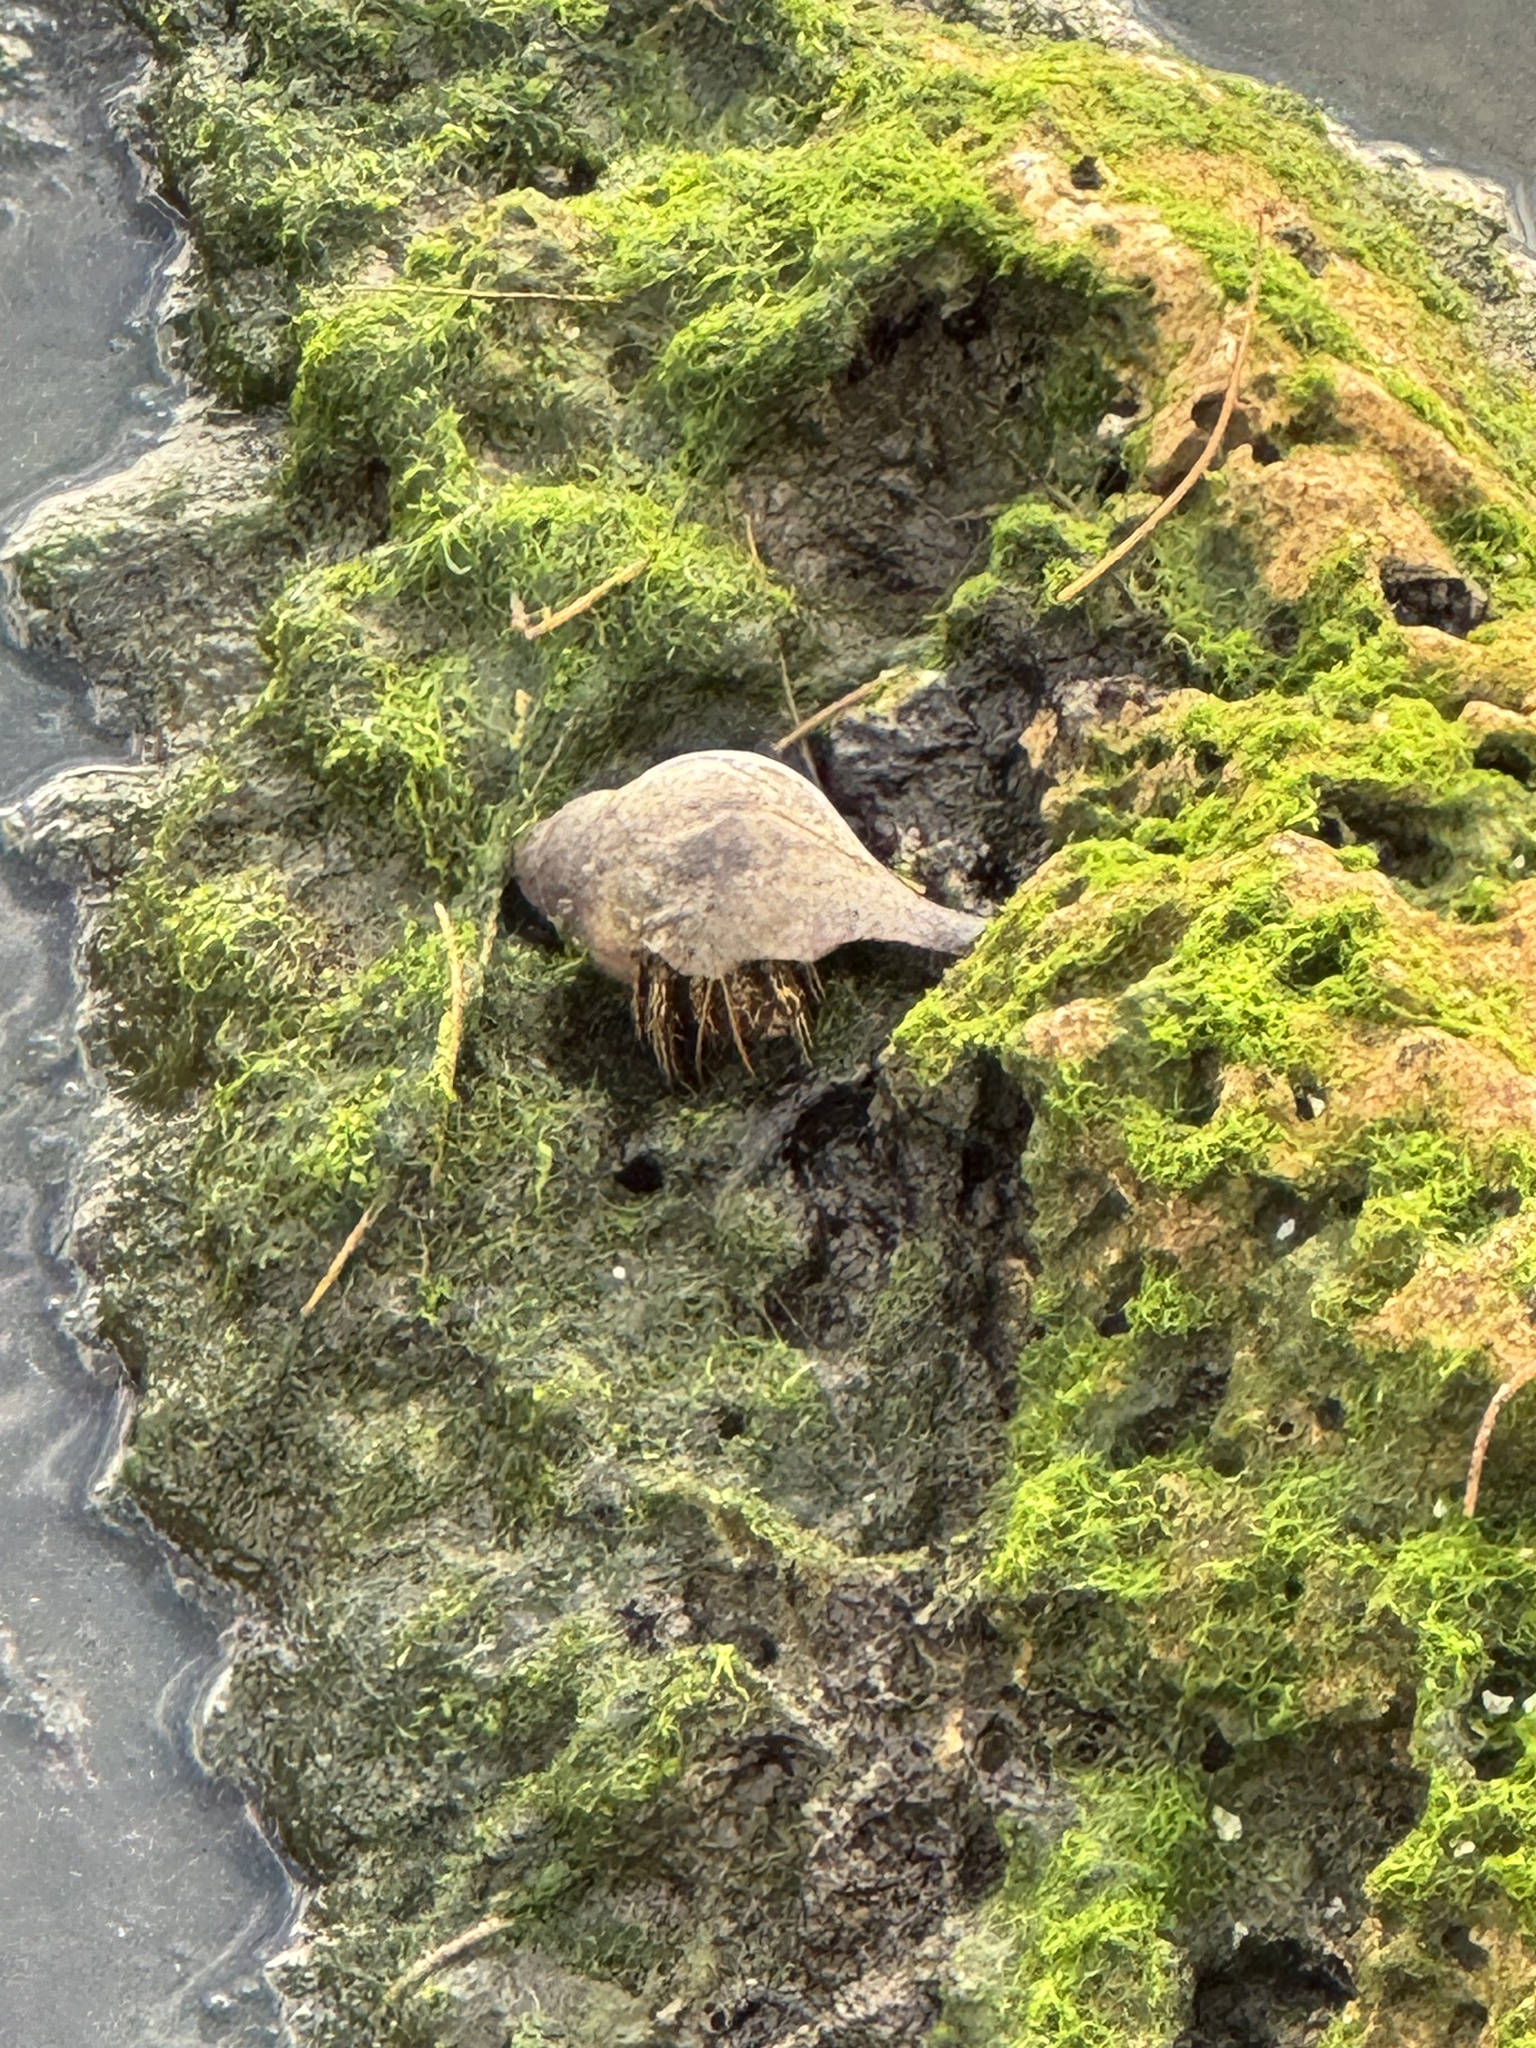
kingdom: Animalia
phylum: Arthropoda
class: Malacostraca
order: Decapoda
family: Diogenidae
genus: Clibanarius
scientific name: Clibanarius vittatus
